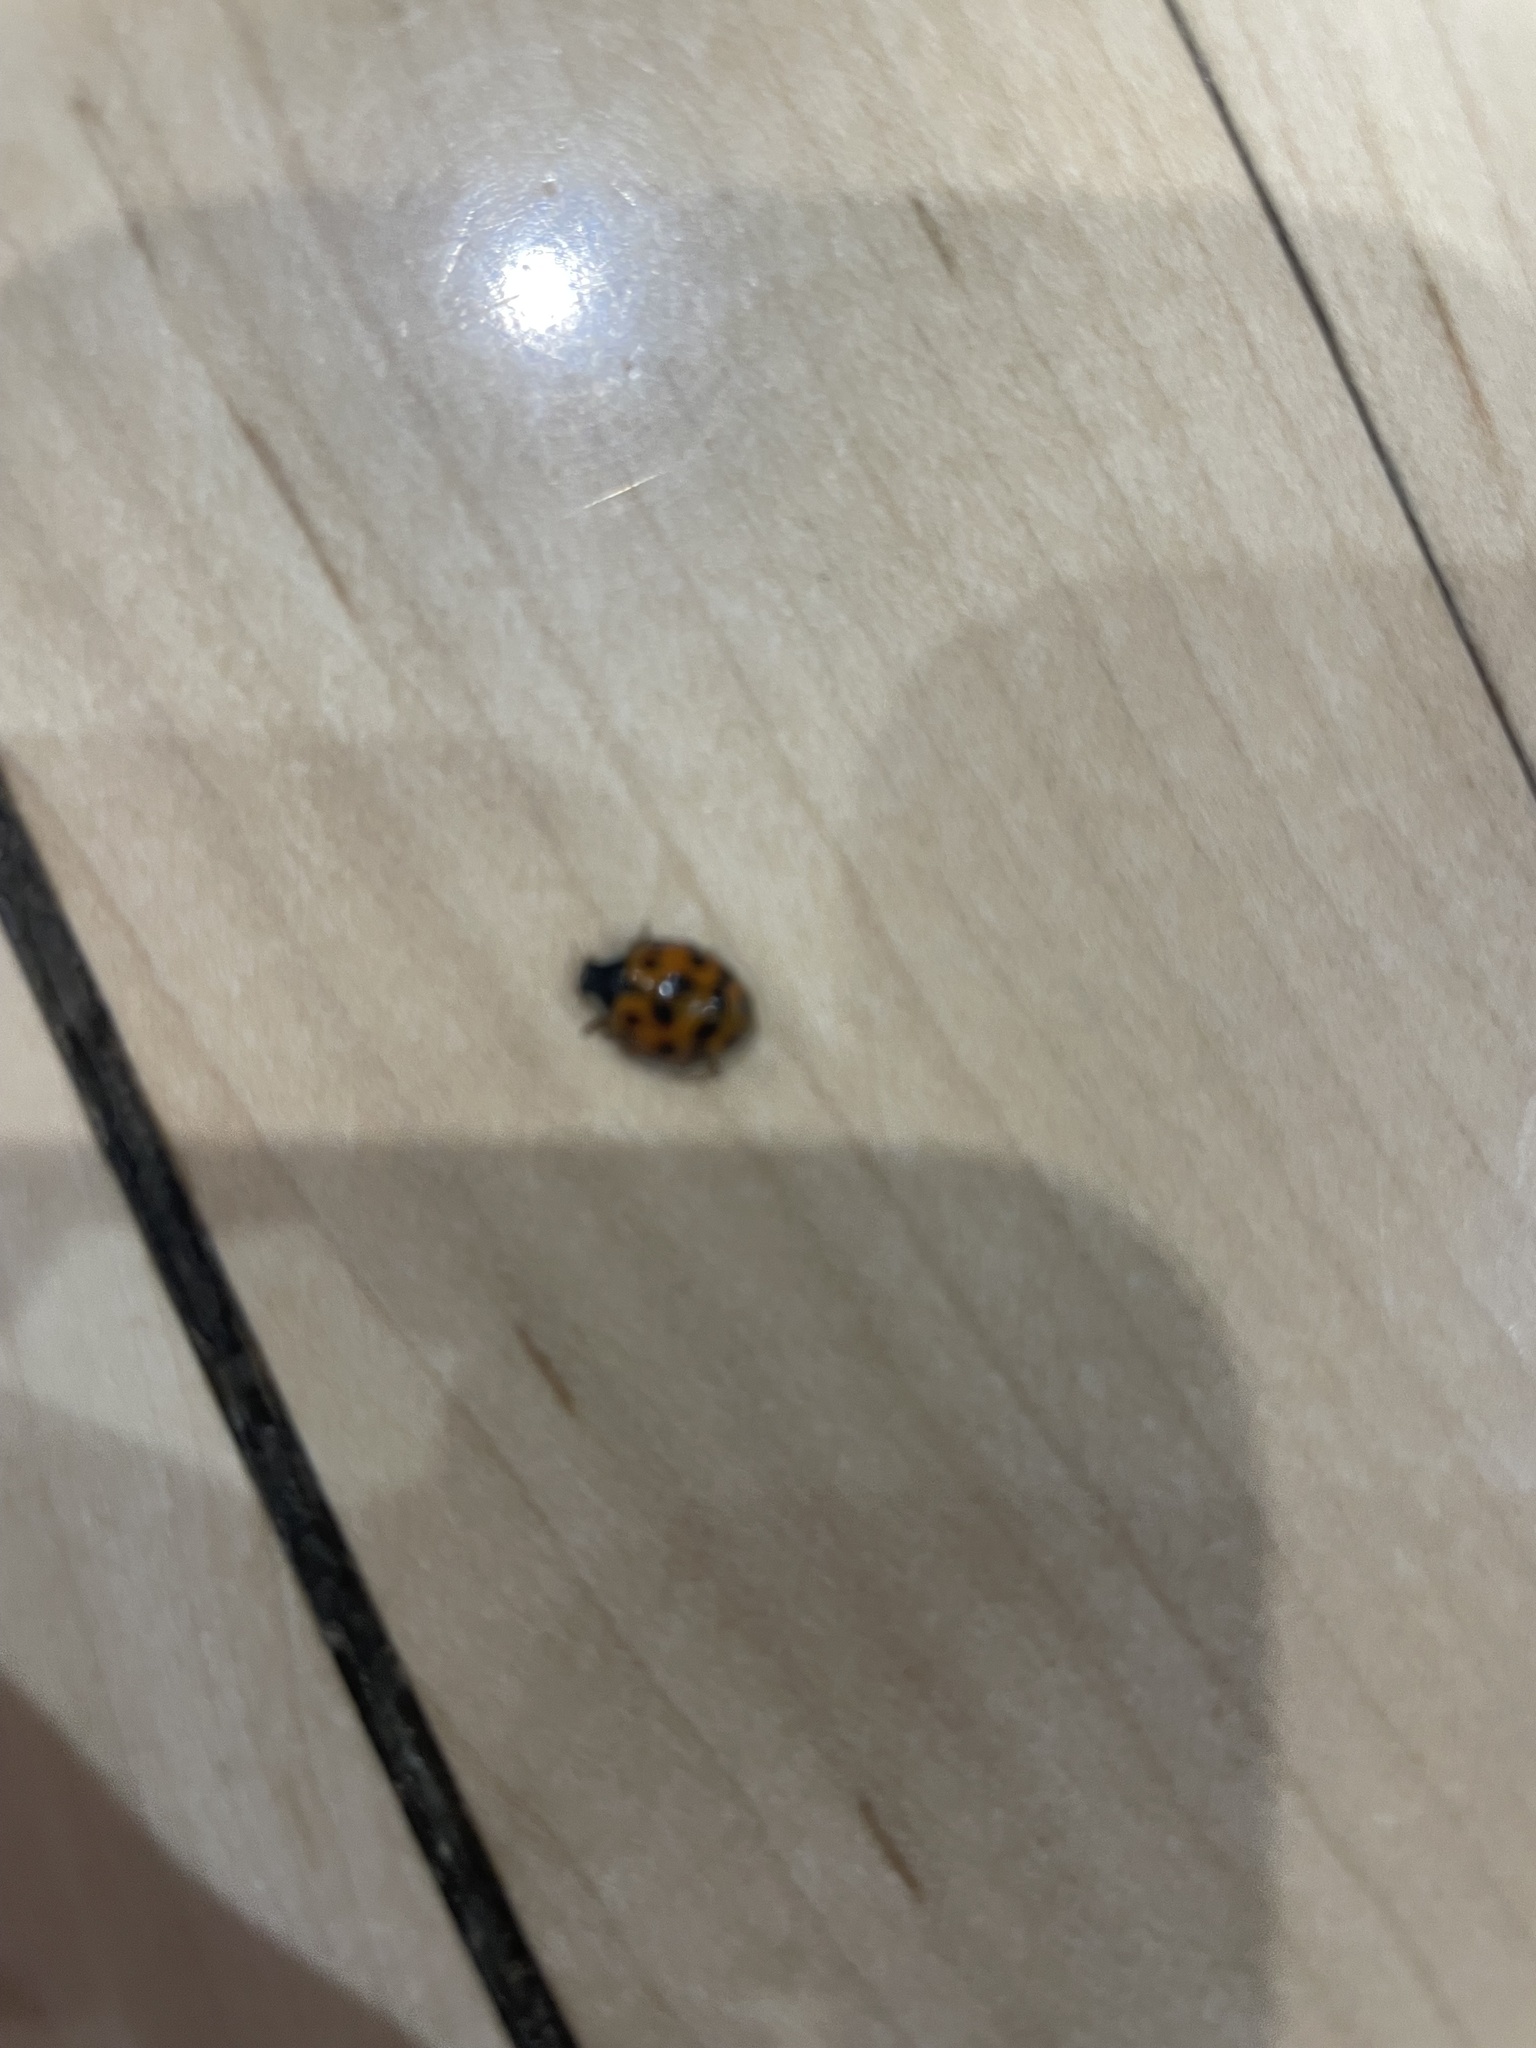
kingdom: Animalia
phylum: Arthropoda
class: Insecta
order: Coleoptera
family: Coccinellidae
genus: Harmonia
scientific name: Harmonia axyridis
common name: Harlequin ladybird
